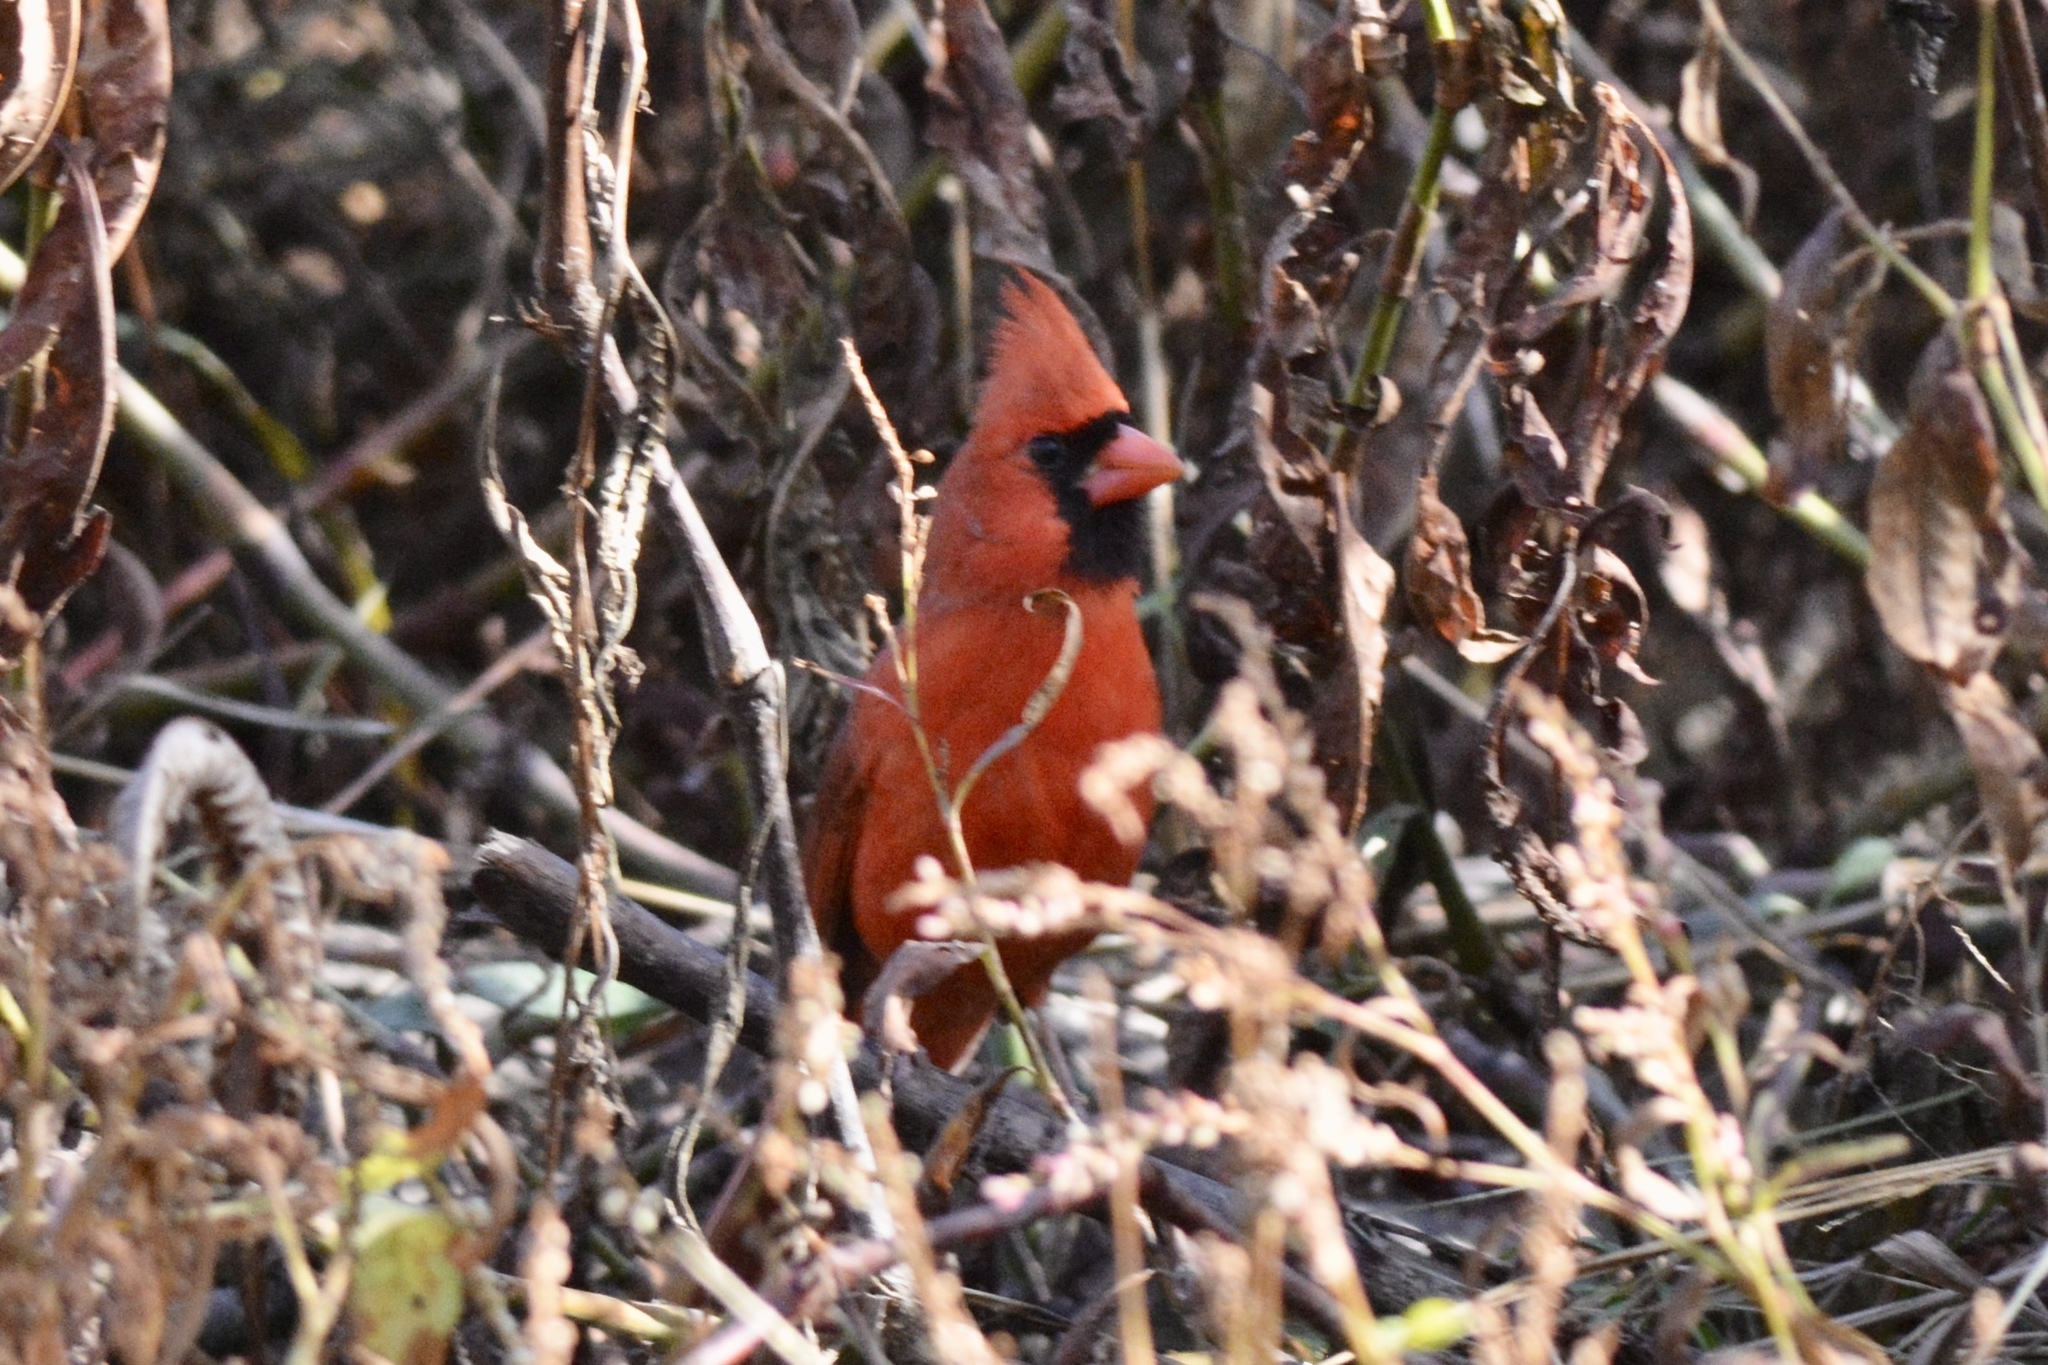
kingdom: Animalia
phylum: Chordata
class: Aves
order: Passeriformes
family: Cardinalidae
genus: Cardinalis
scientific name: Cardinalis cardinalis
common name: Northern cardinal
